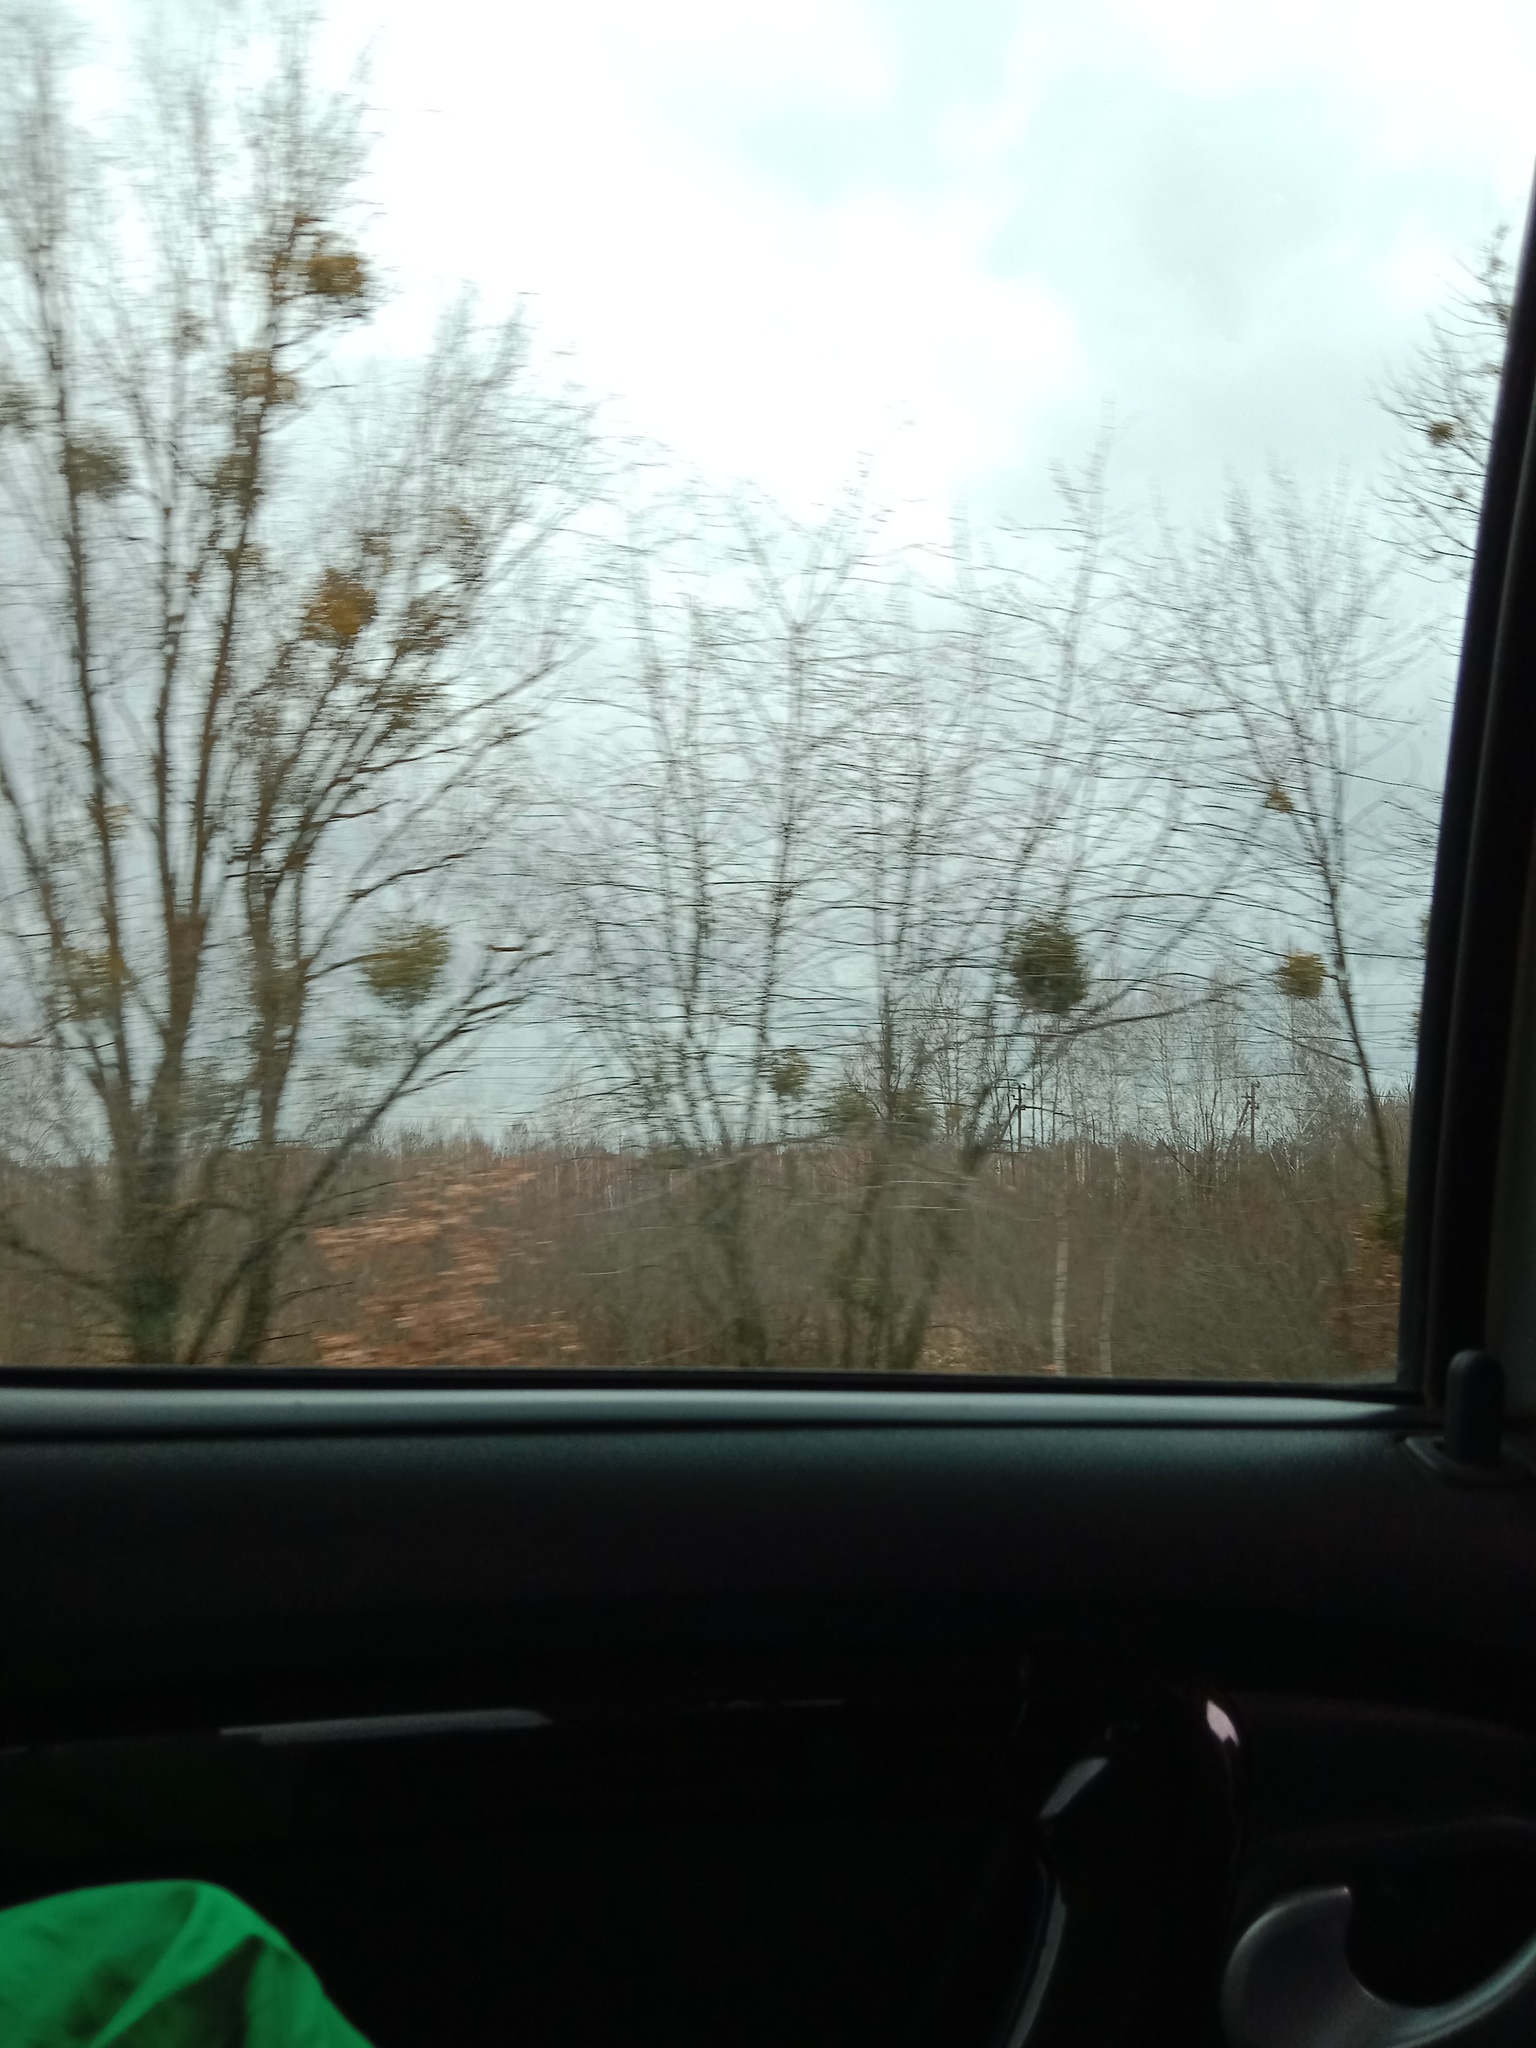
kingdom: Plantae
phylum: Tracheophyta
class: Magnoliopsida
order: Santalales
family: Viscaceae
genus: Viscum
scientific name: Viscum album
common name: Mistletoe
